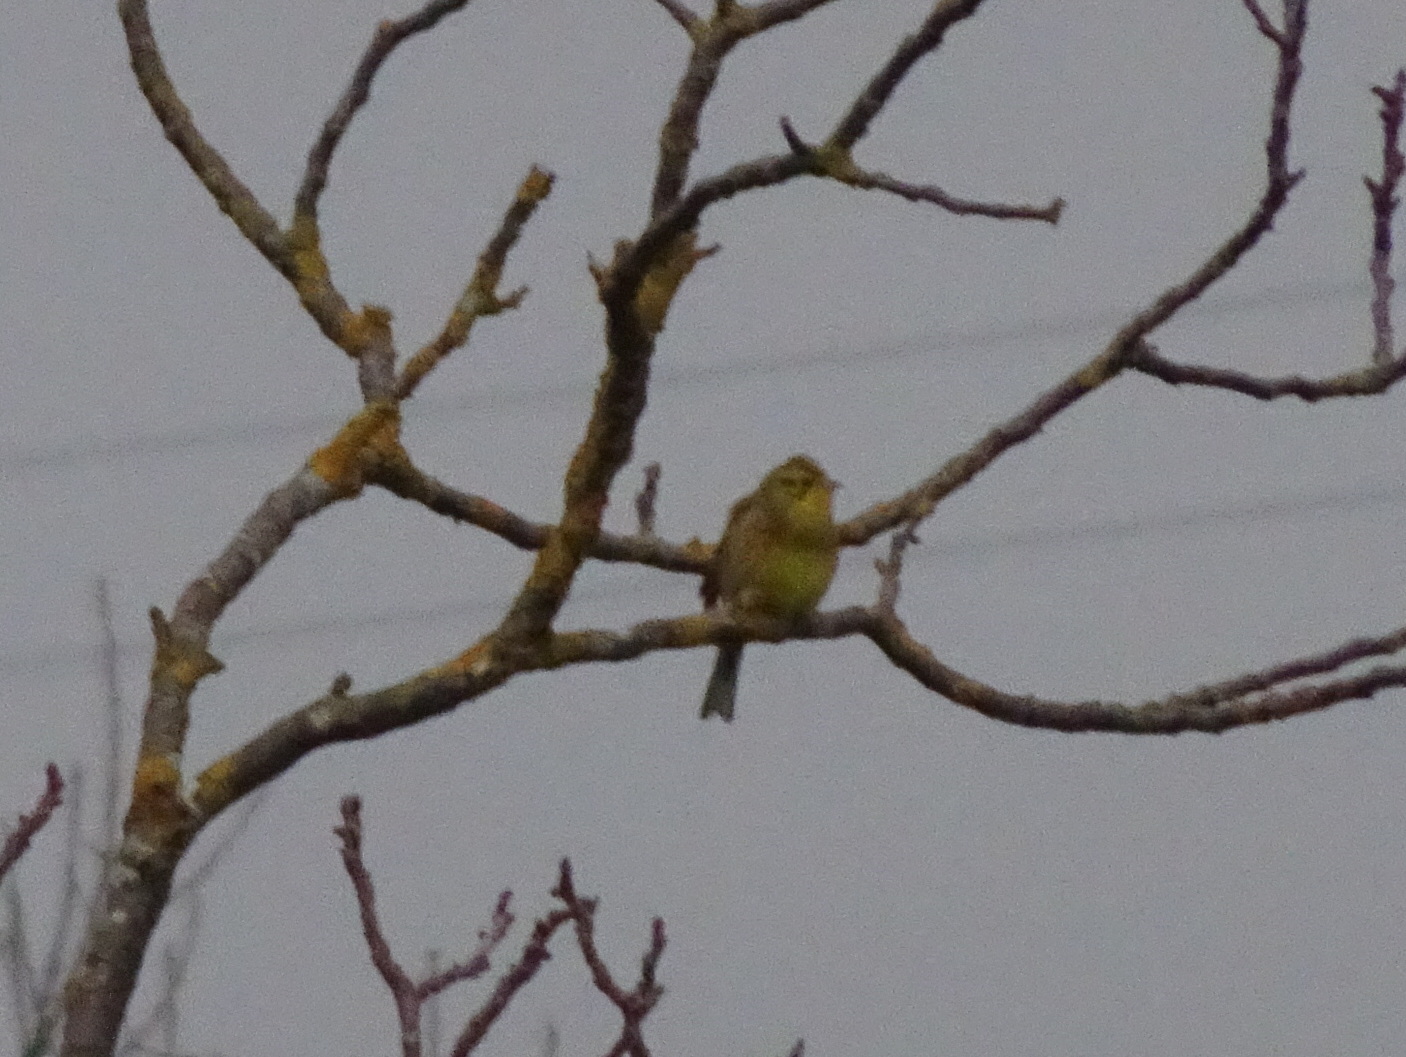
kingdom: Animalia
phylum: Chordata
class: Aves
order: Passeriformes
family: Emberizidae
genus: Emberiza
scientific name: Emberiza citrinella
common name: Yellowhammer
